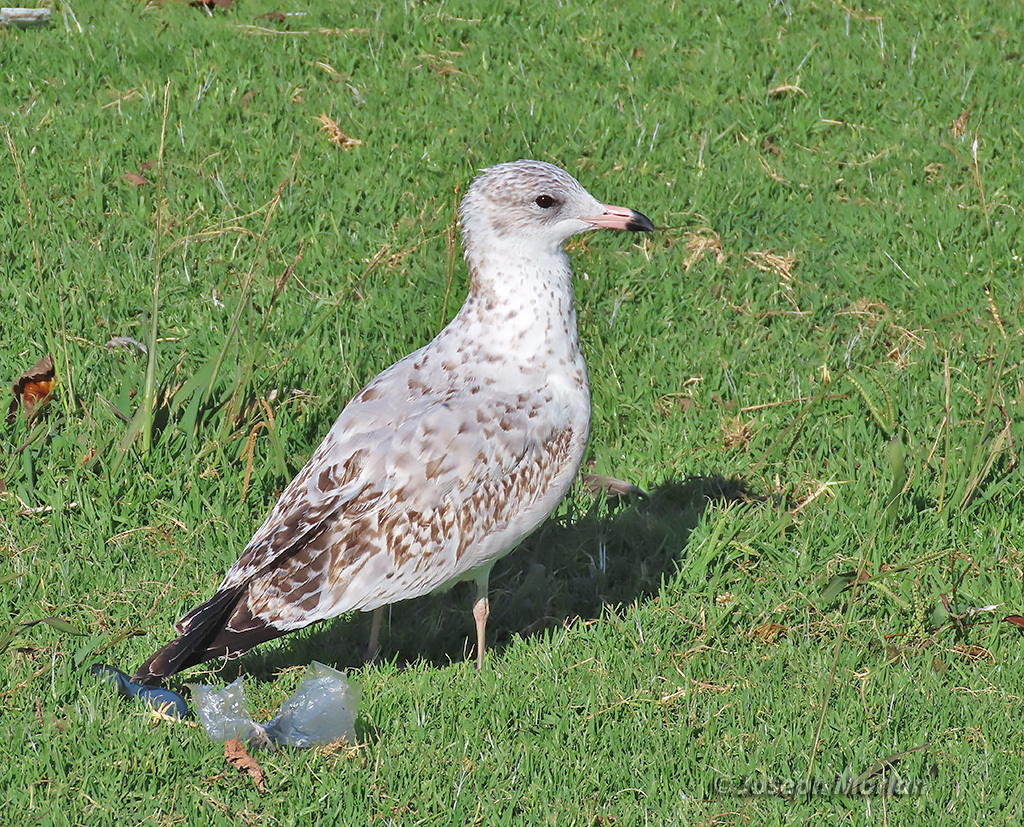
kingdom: Animalia
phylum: Chordata
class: Aves
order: Charadriiformes
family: Laridae
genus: Larus
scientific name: Larus delawarensis
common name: Ring-billed gull
